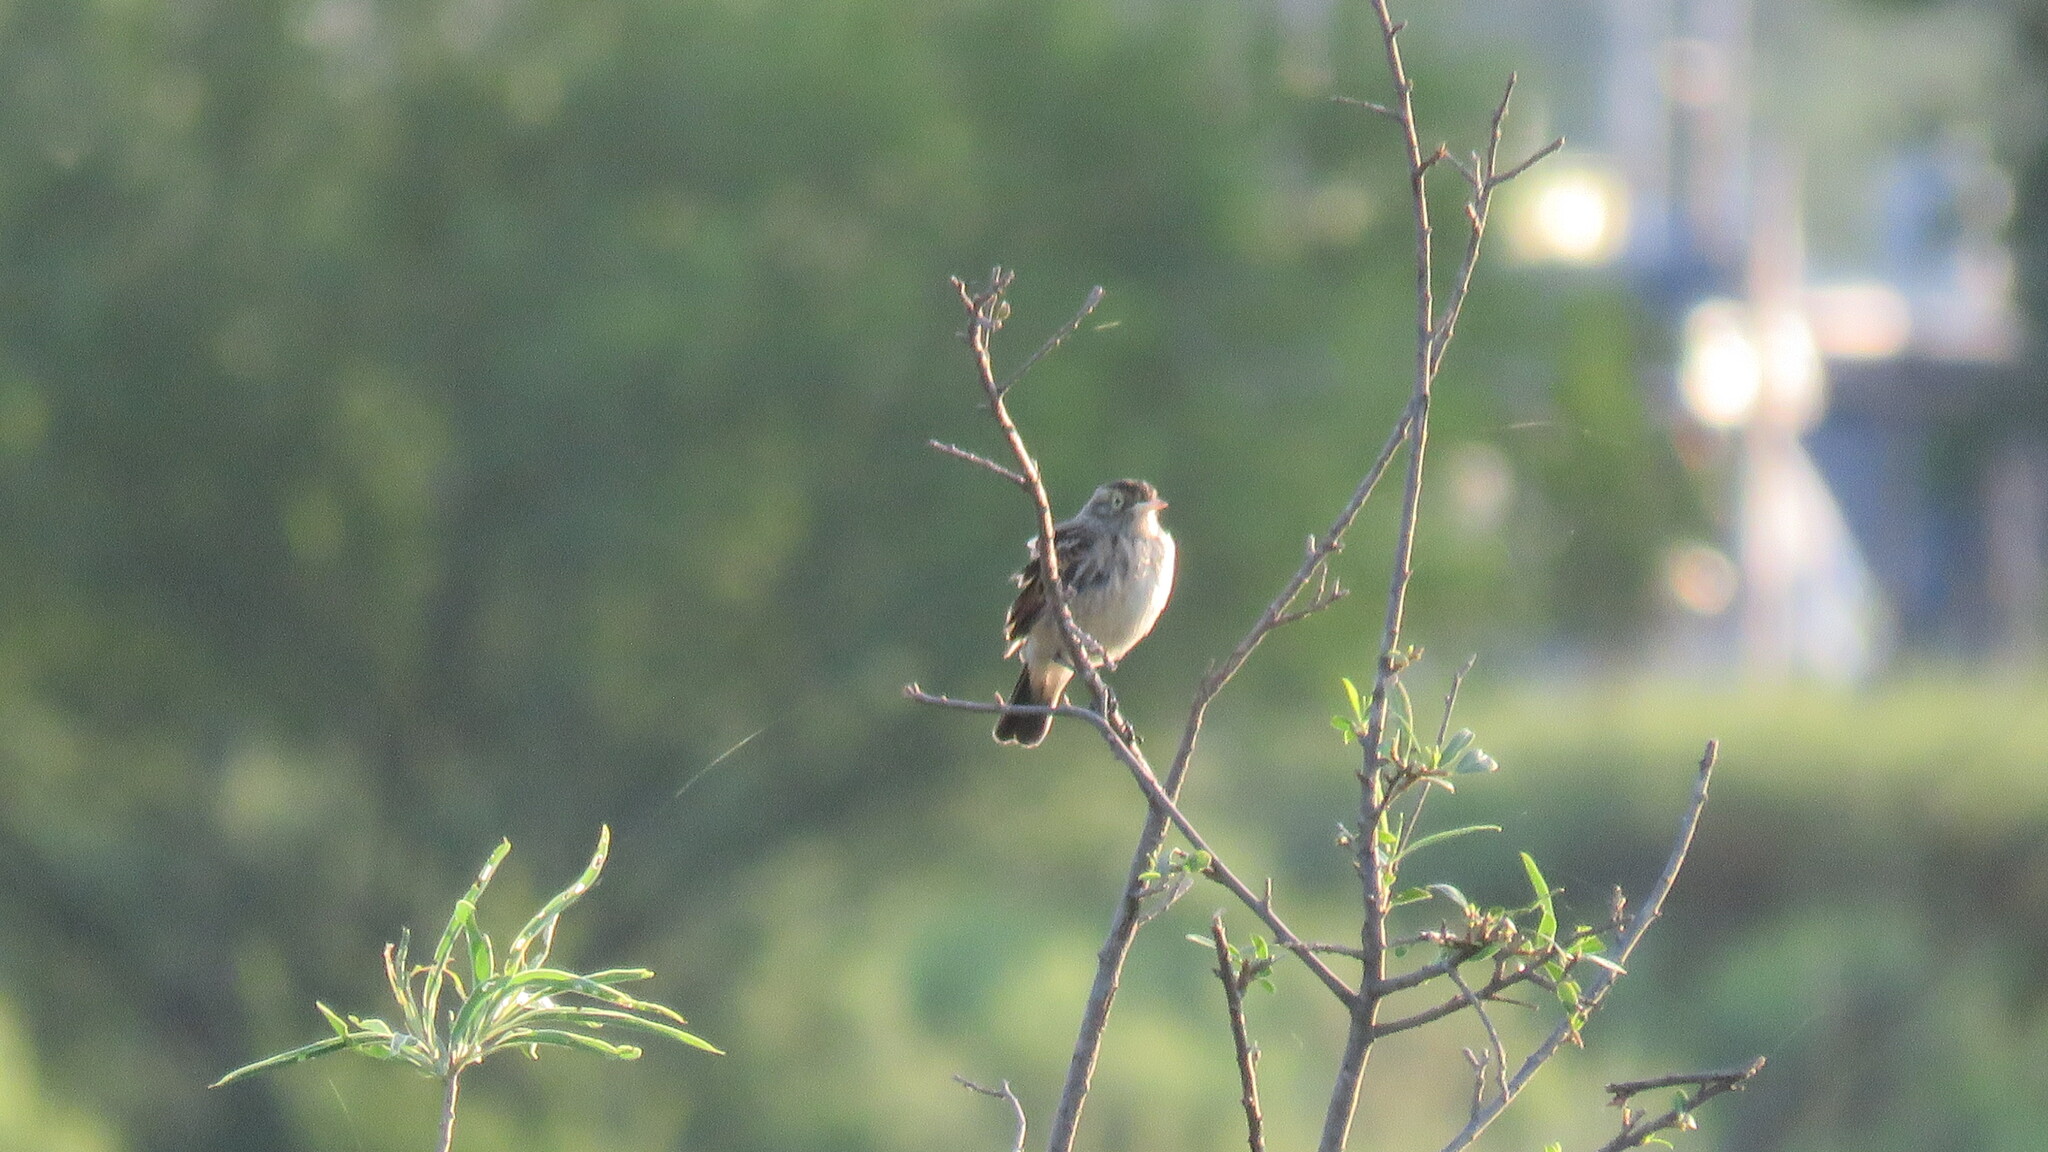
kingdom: Animalia
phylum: Chordata
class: Aves
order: Passeriformes
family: Tyrannidae
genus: Hymenops
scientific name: Hymenops perspicillatus
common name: Spectacled tyrant
